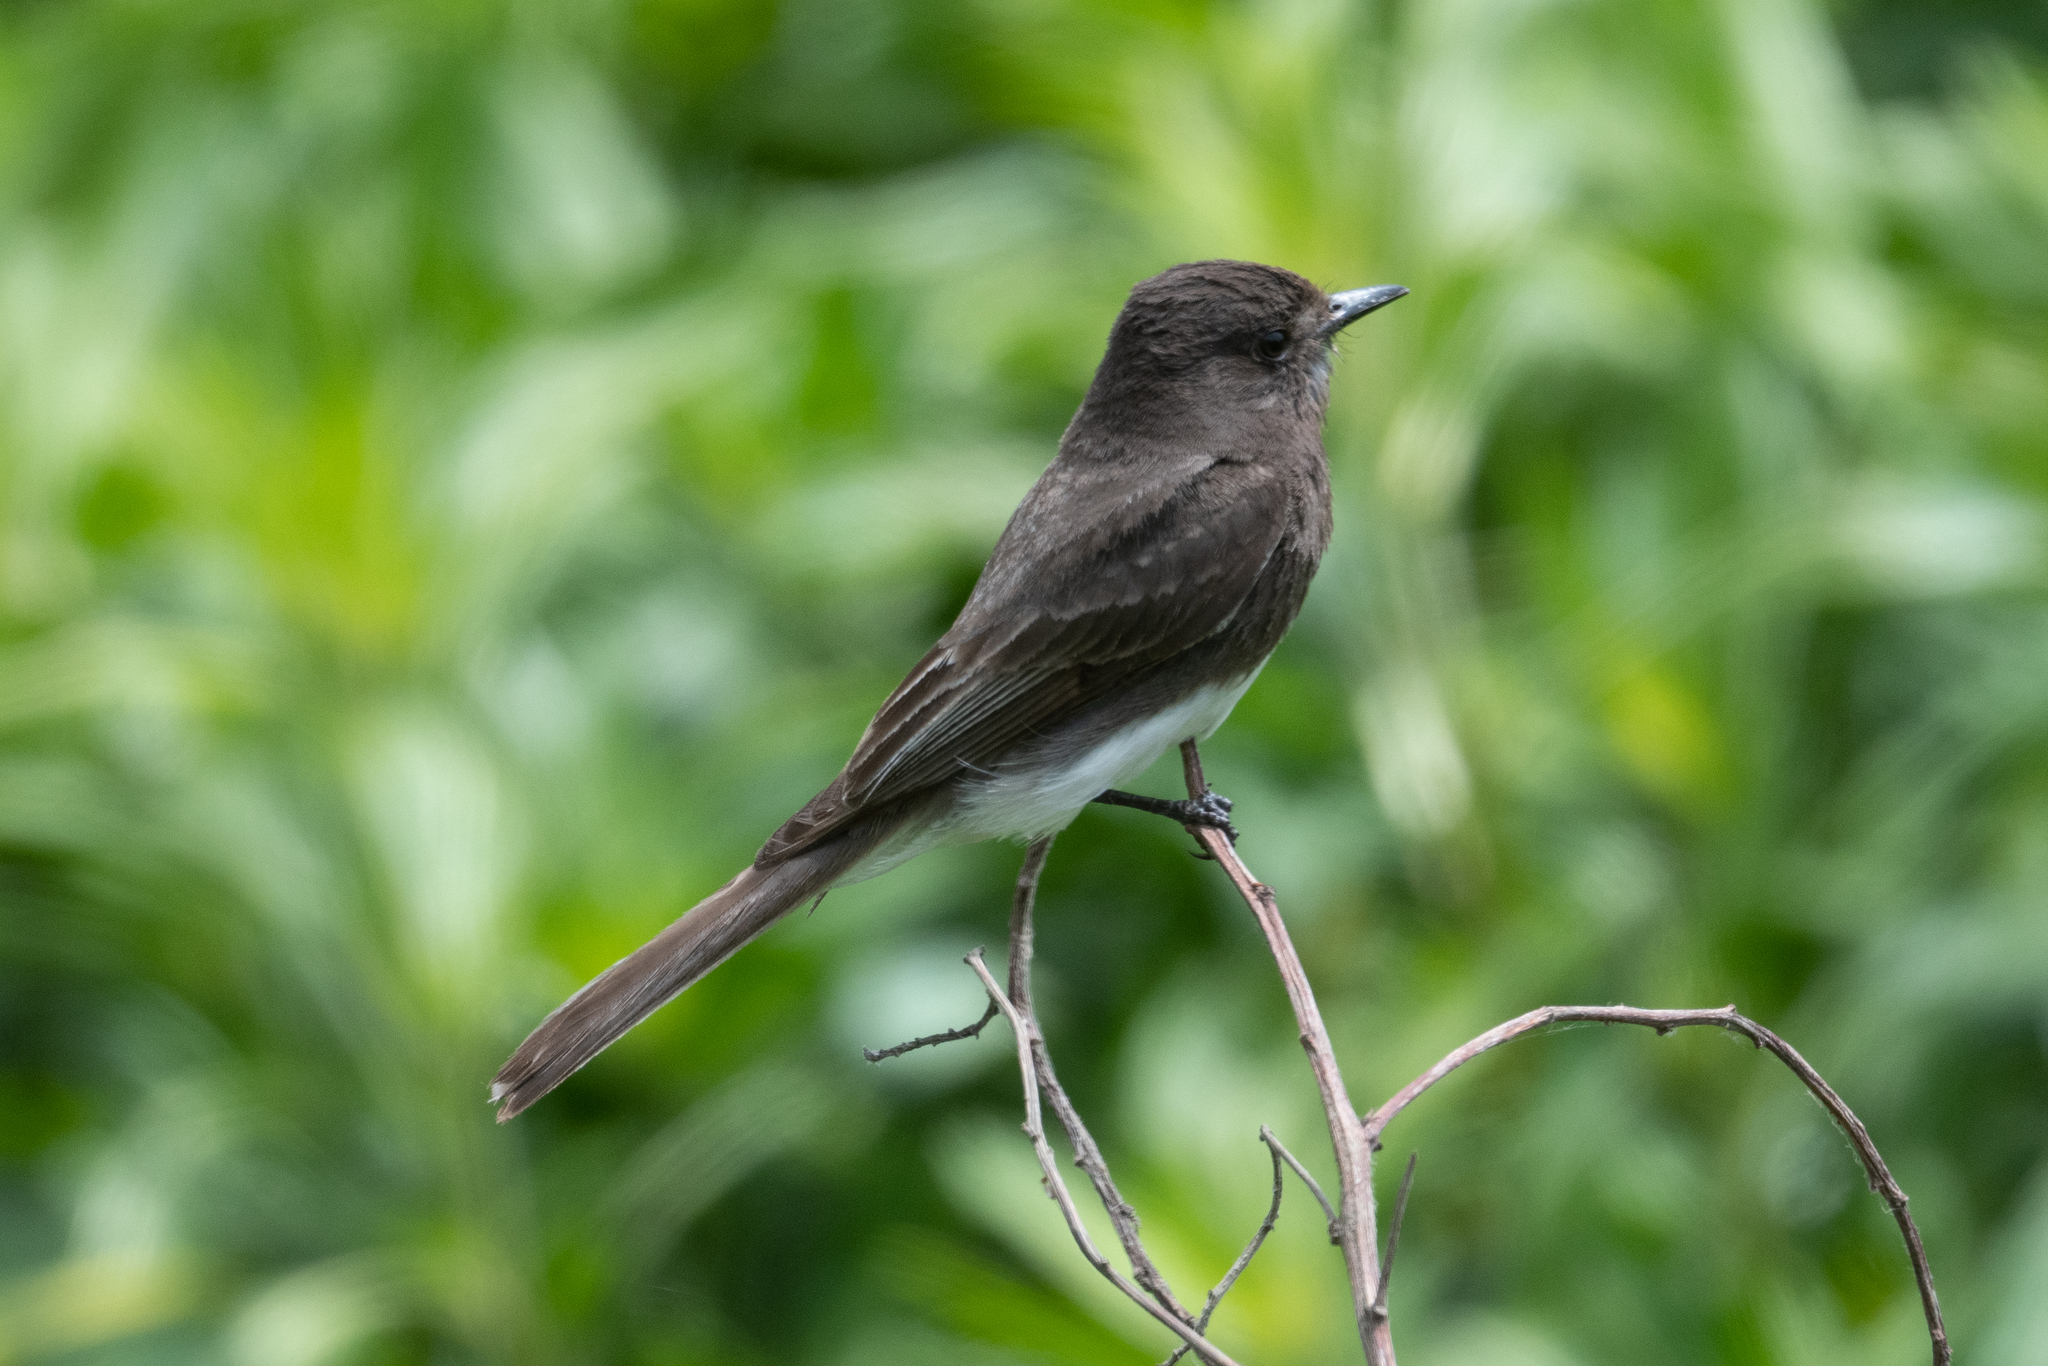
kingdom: Animalia
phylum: Chordata
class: Aves
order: Passeriformes
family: Tyrannidae
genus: Sayornis
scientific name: Sayornis nigricans
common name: Black phoebe
